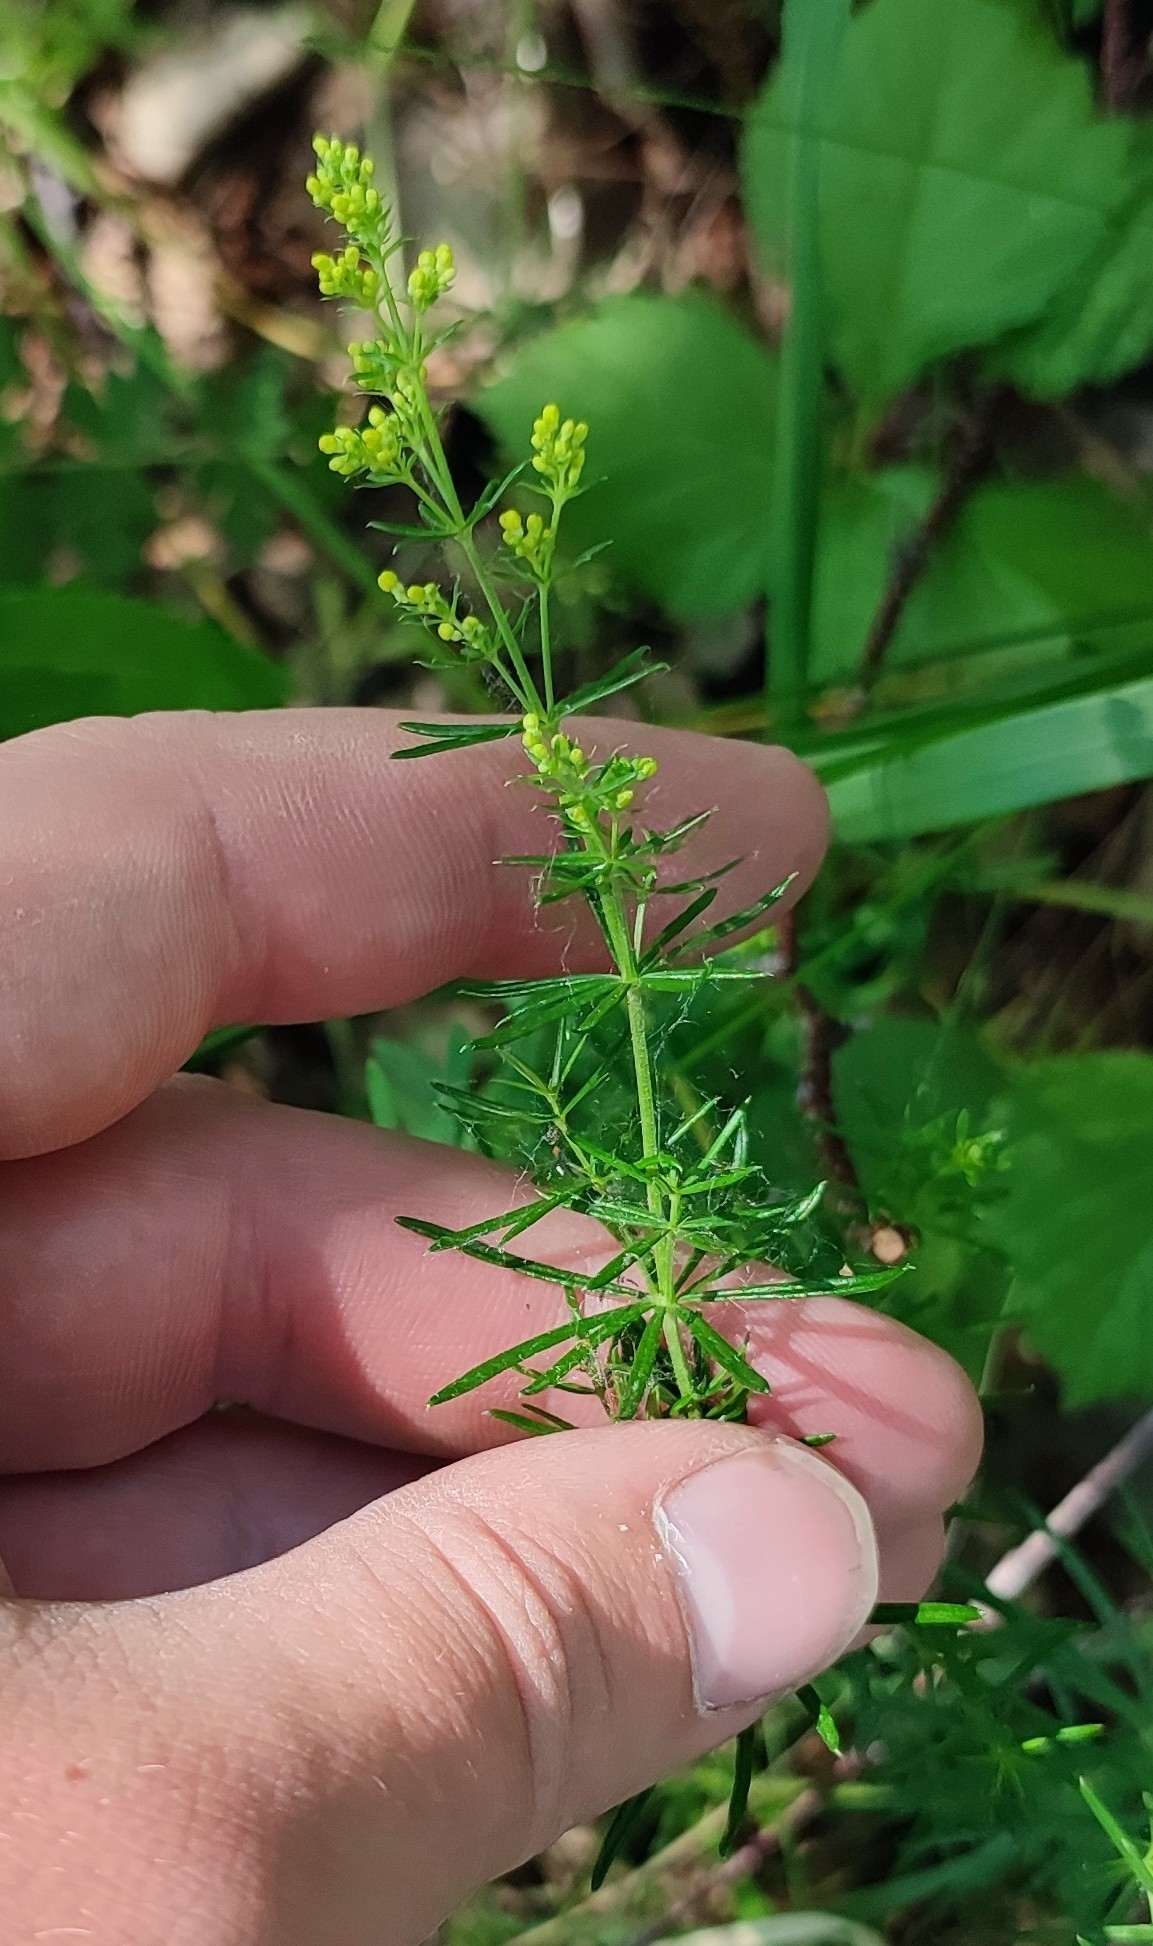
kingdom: Plantae
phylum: Tracheophyta
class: Magnoliopsida
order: Gentianales
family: Rubiaceae
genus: Galium
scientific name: Galium verum
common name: Lady's bedstraw
